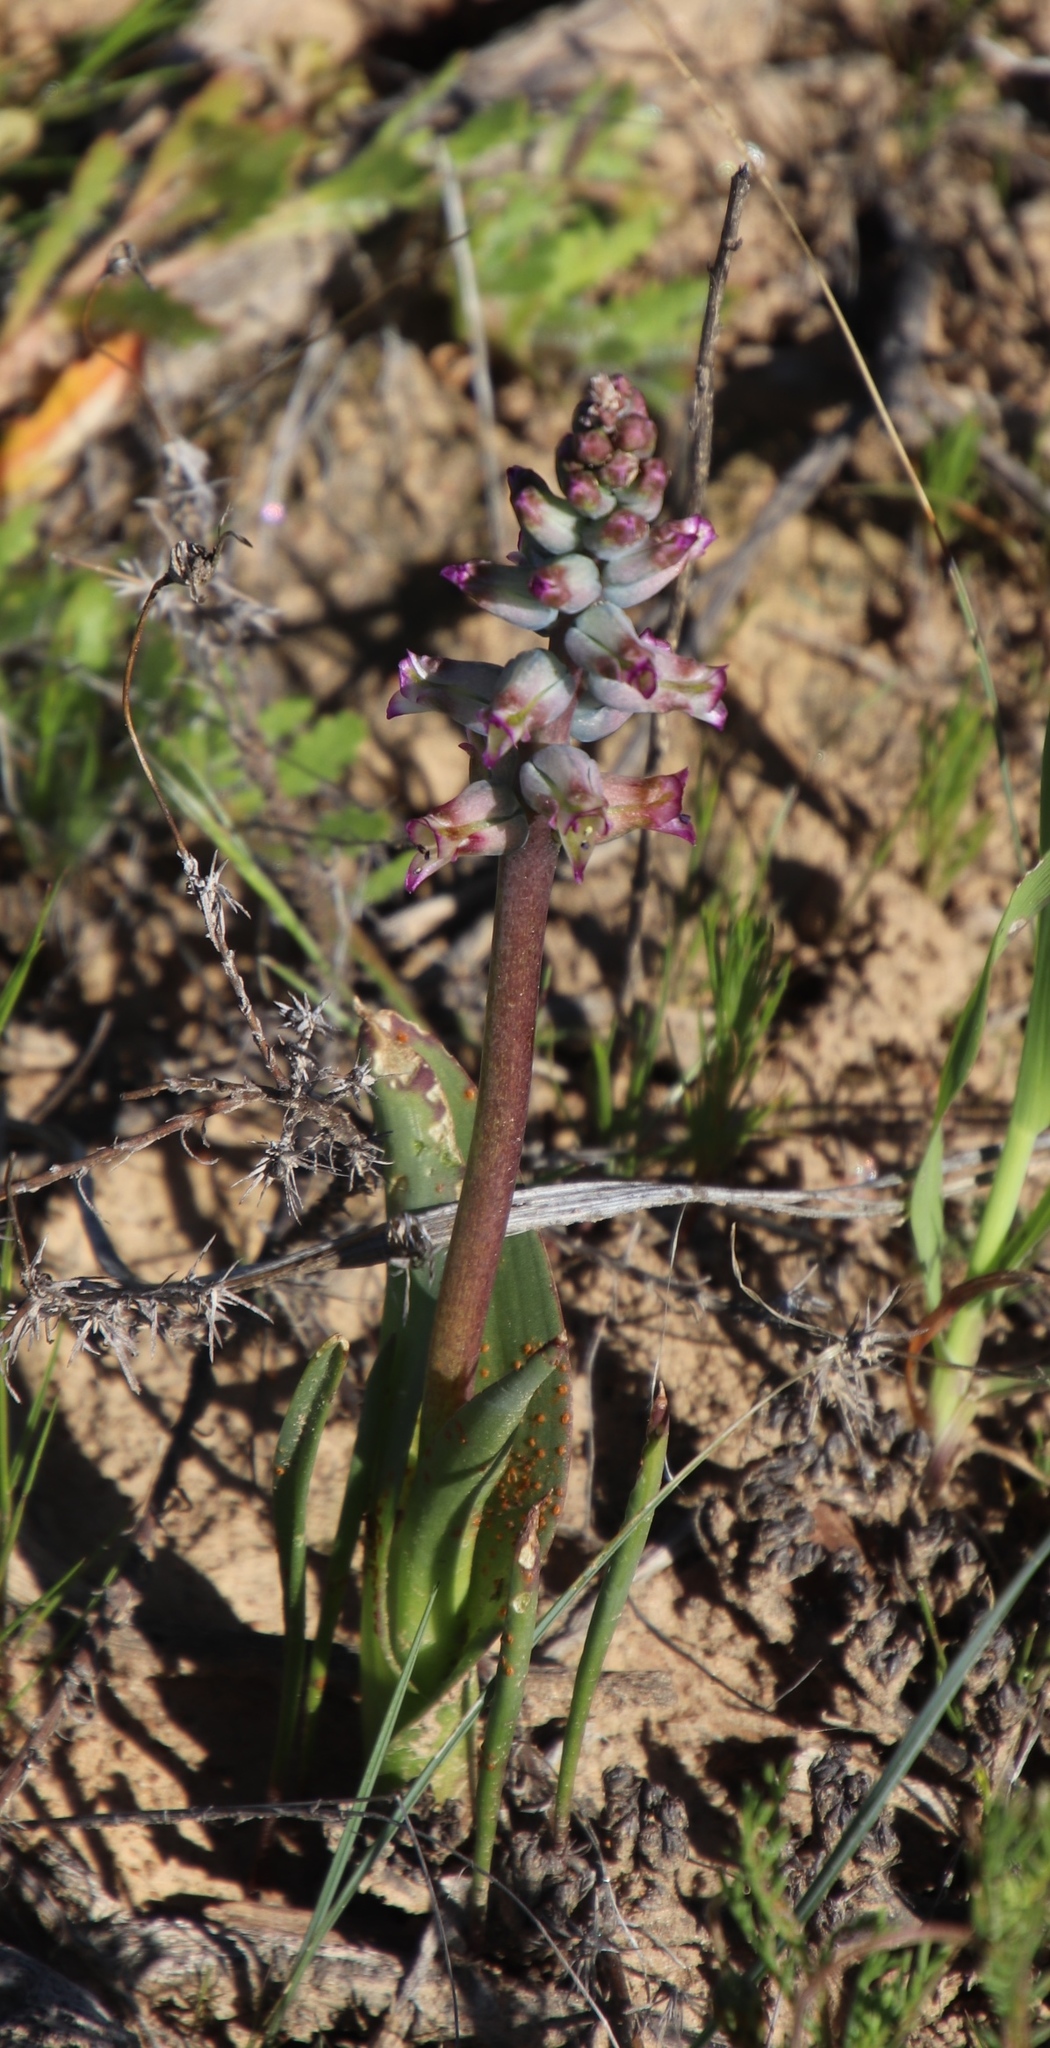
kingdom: Plantae
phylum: Tracheophyta
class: Liliopsida
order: Asparagales
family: Asparagaceae
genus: Lachenalia
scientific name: Lachenalia obscura
